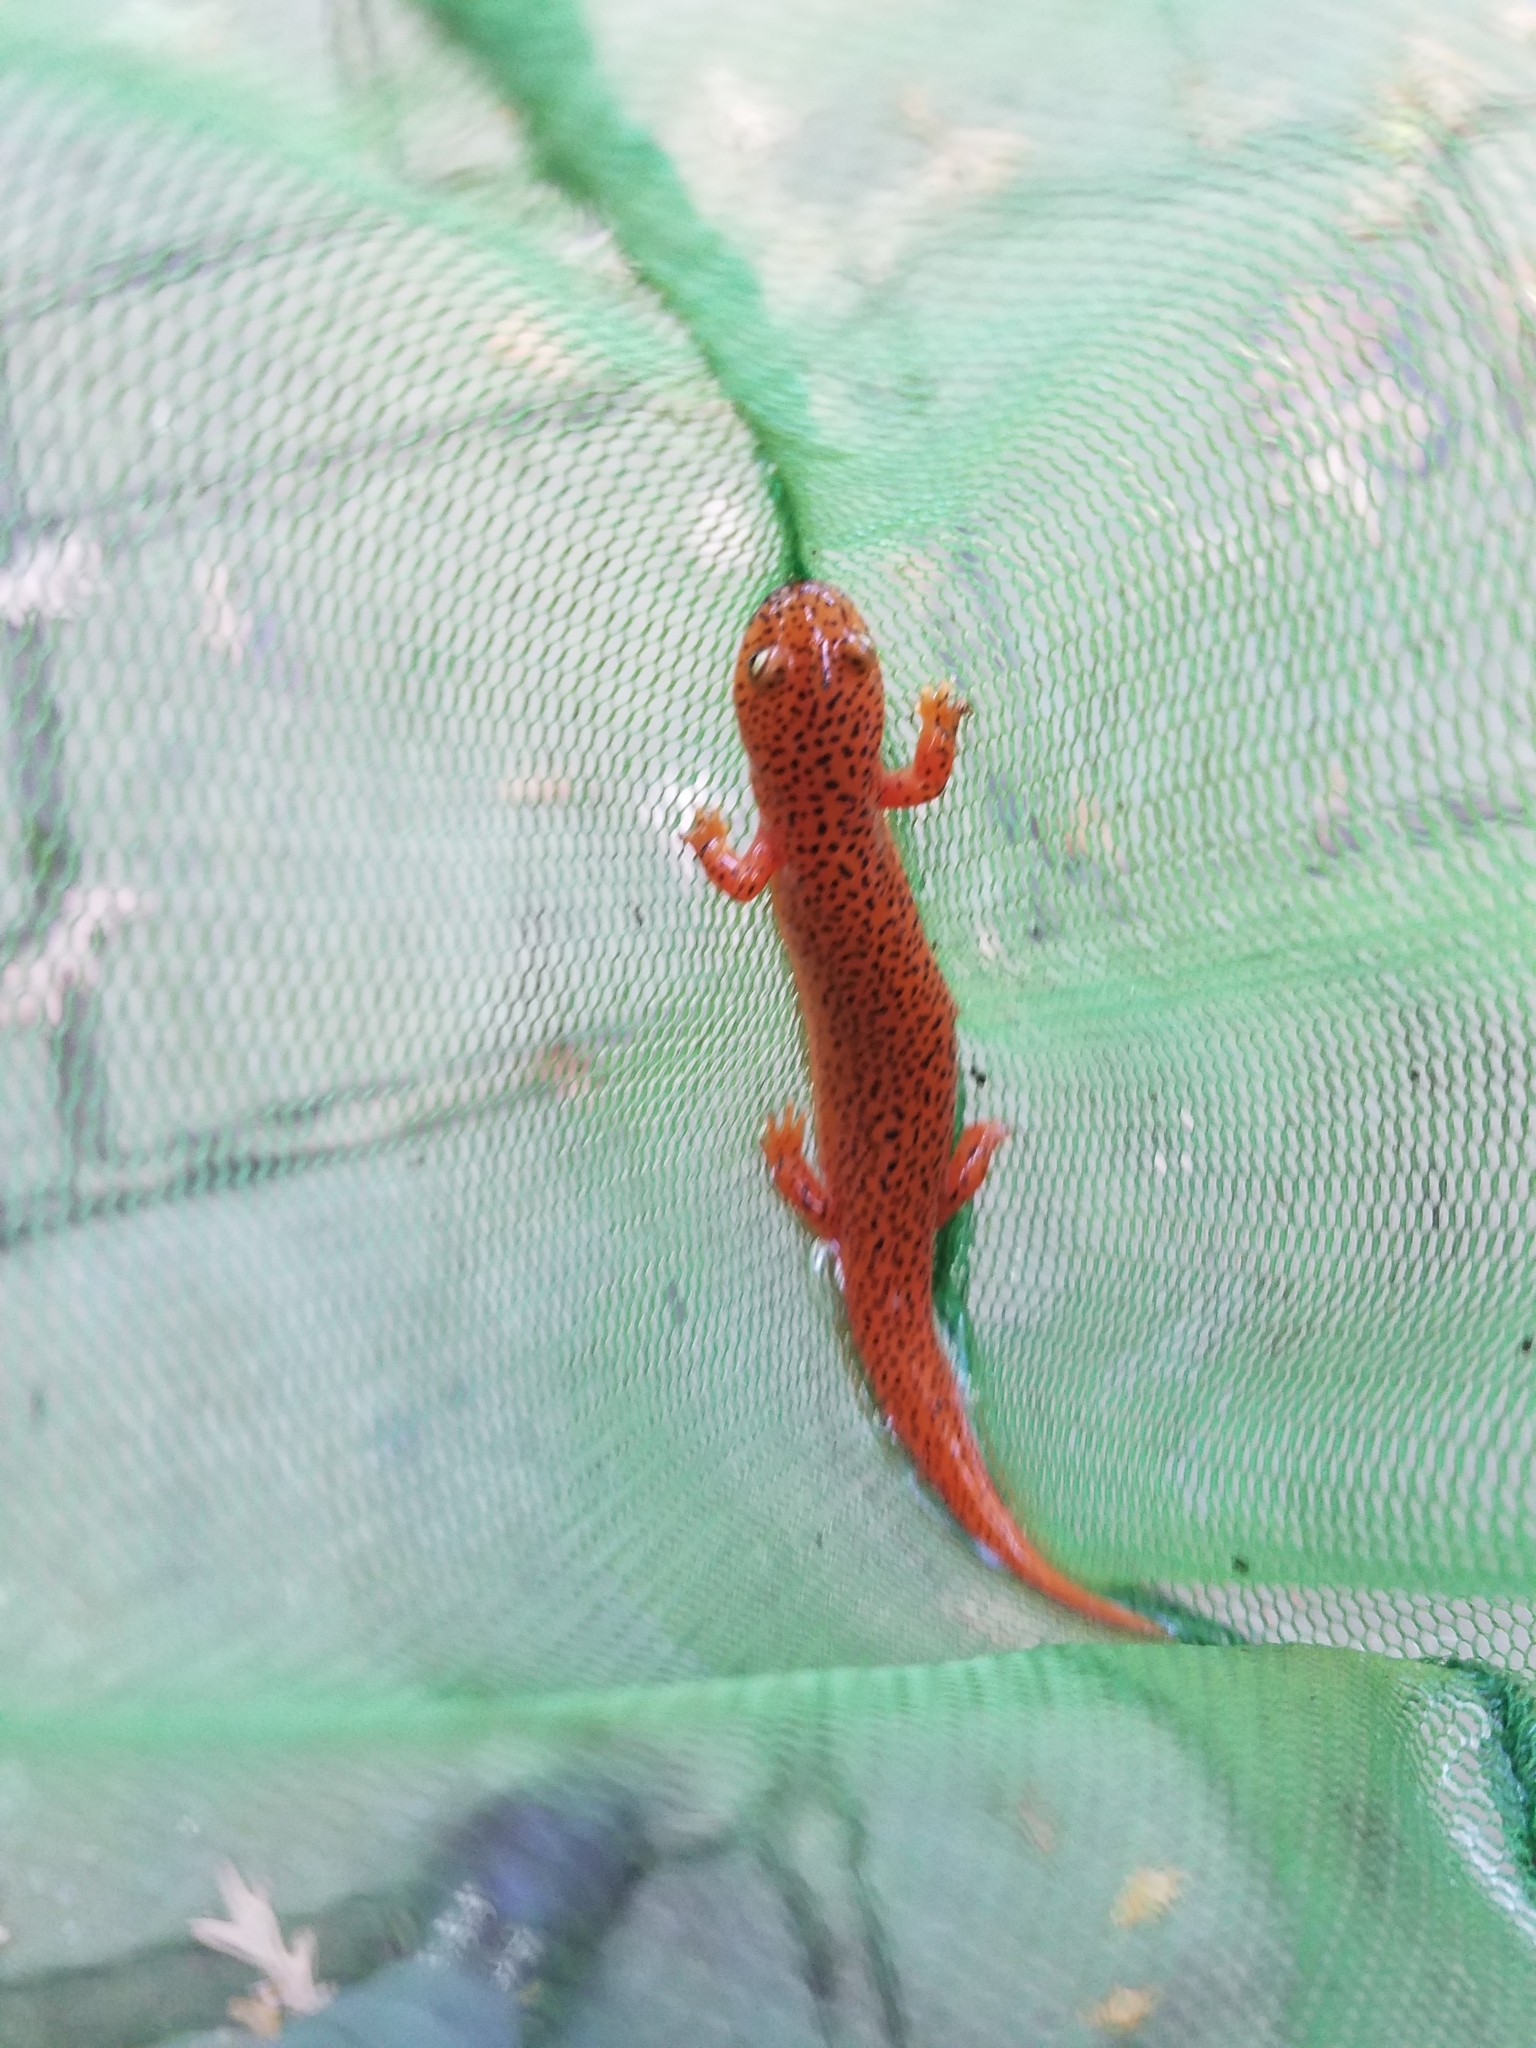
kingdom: Animalia
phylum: Chordata
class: Amphibia
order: Caudata
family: Plethodontidae
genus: Pseudotriton
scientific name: Pseudotriton ruber
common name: Red salamander
